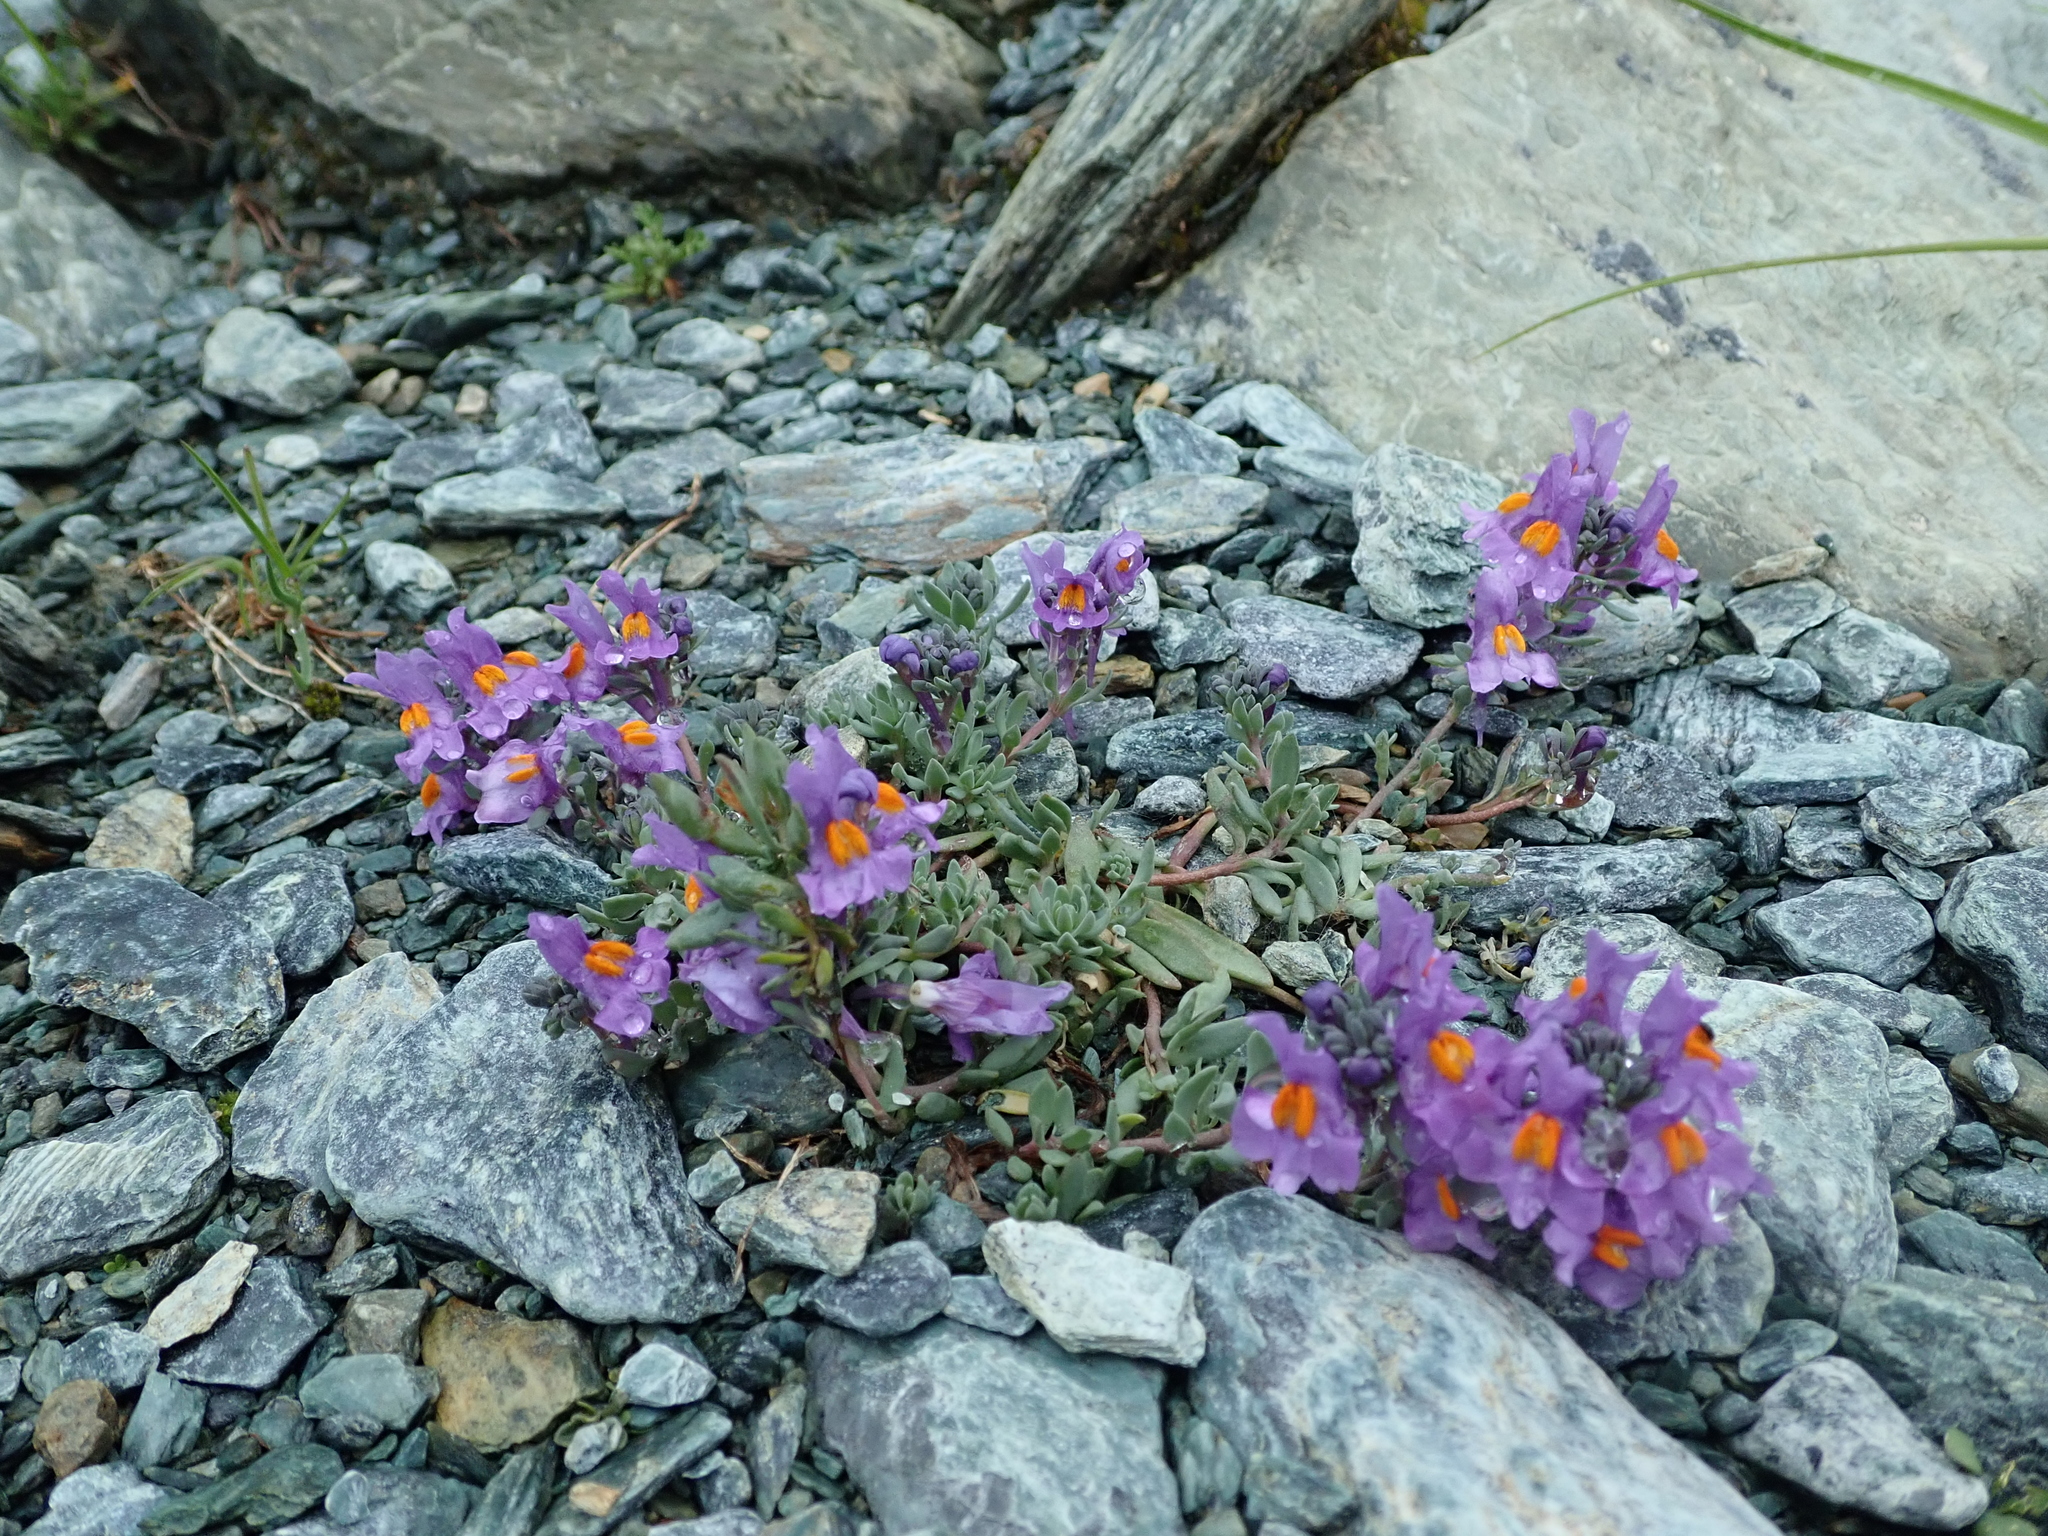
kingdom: Plantae
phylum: Tracheophyta
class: Magnoliopsida
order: Lamiales
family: Plantaginaceae
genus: Linaria
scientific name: Linaria alpina
